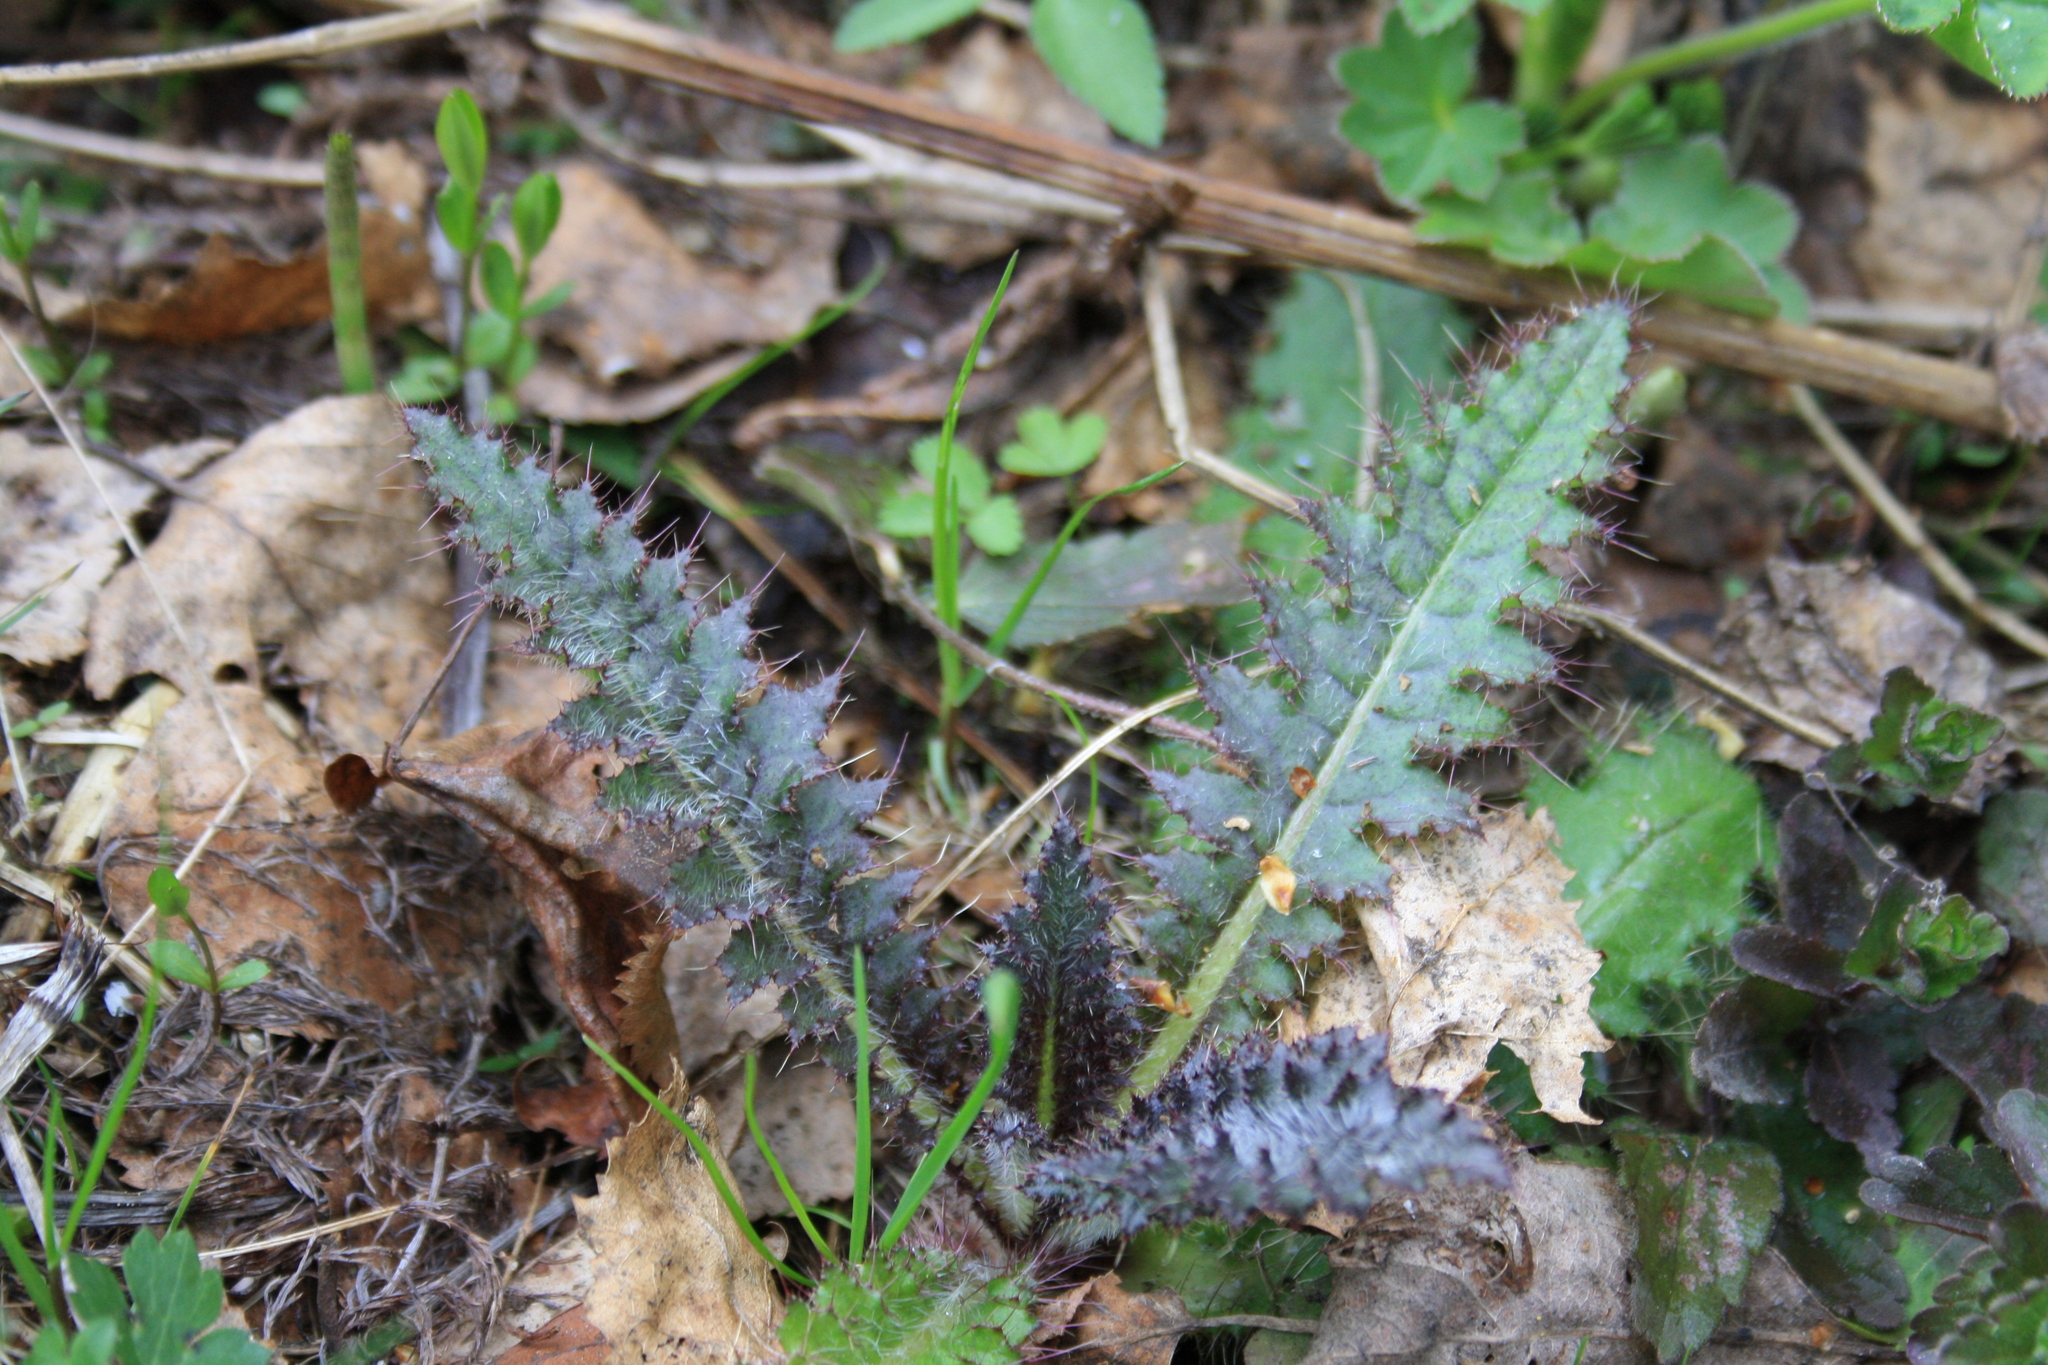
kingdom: Plantae
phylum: Tracheophyta
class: Magnoliopsida
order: Asterales
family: Asteraceae
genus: Cirsium
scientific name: Cirsium palustre
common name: Marsh thistle
